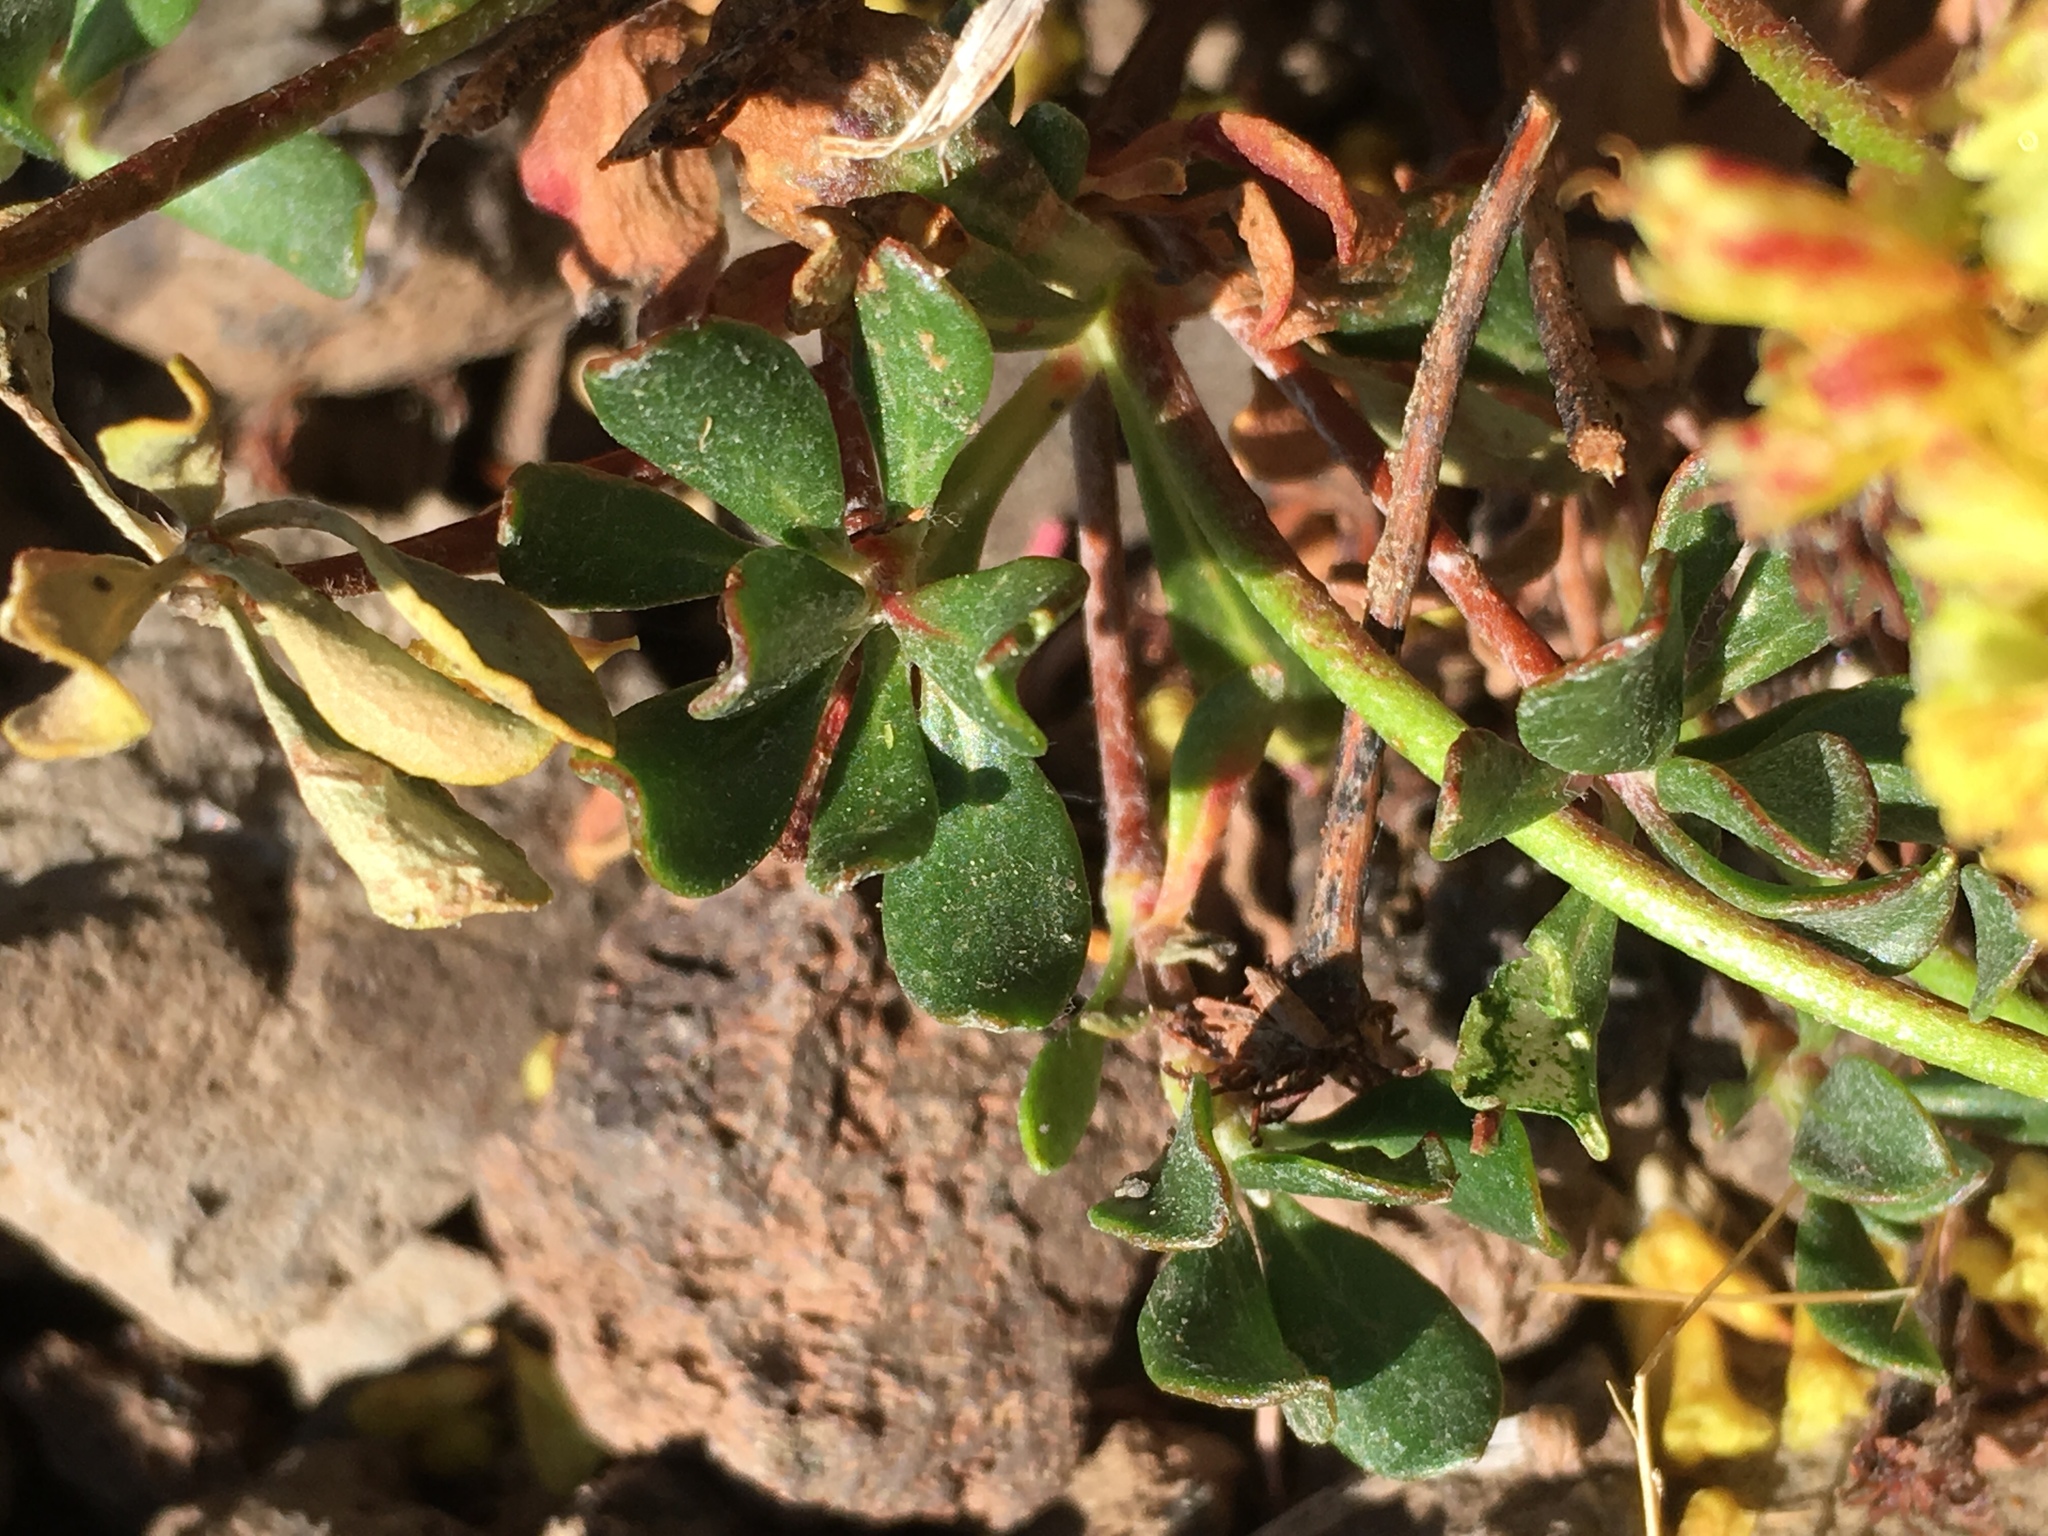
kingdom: Plantae
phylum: Tracheophyta
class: Magnoliopsida
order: Caryophyllales
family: Polygonaceae
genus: Eriogonum
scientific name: Eriogonum umbellatum
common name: Sulfur-buckwheat
